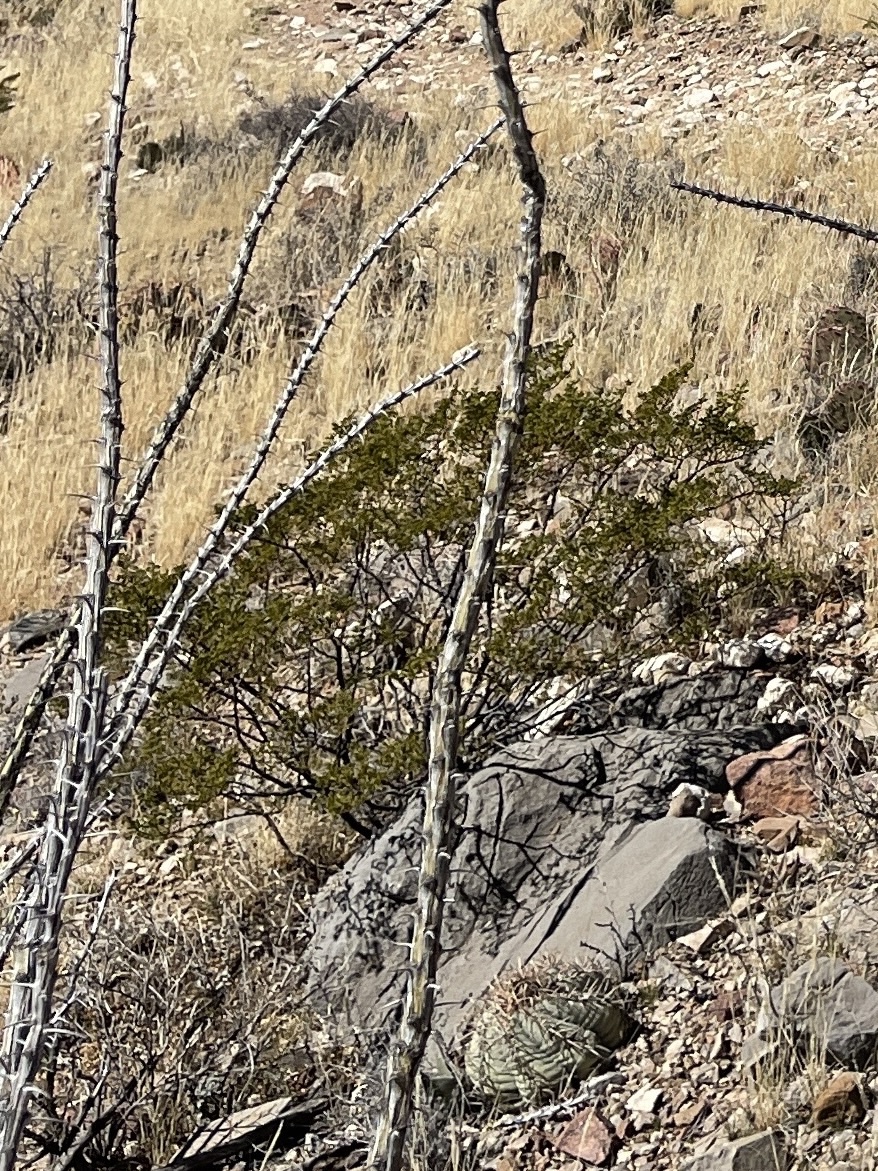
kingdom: Plantae
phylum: Tracheophyta
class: Magnoliopsida
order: Zygophyllales
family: Zygophyllaceae
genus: Larrea
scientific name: Larrea tridentata
